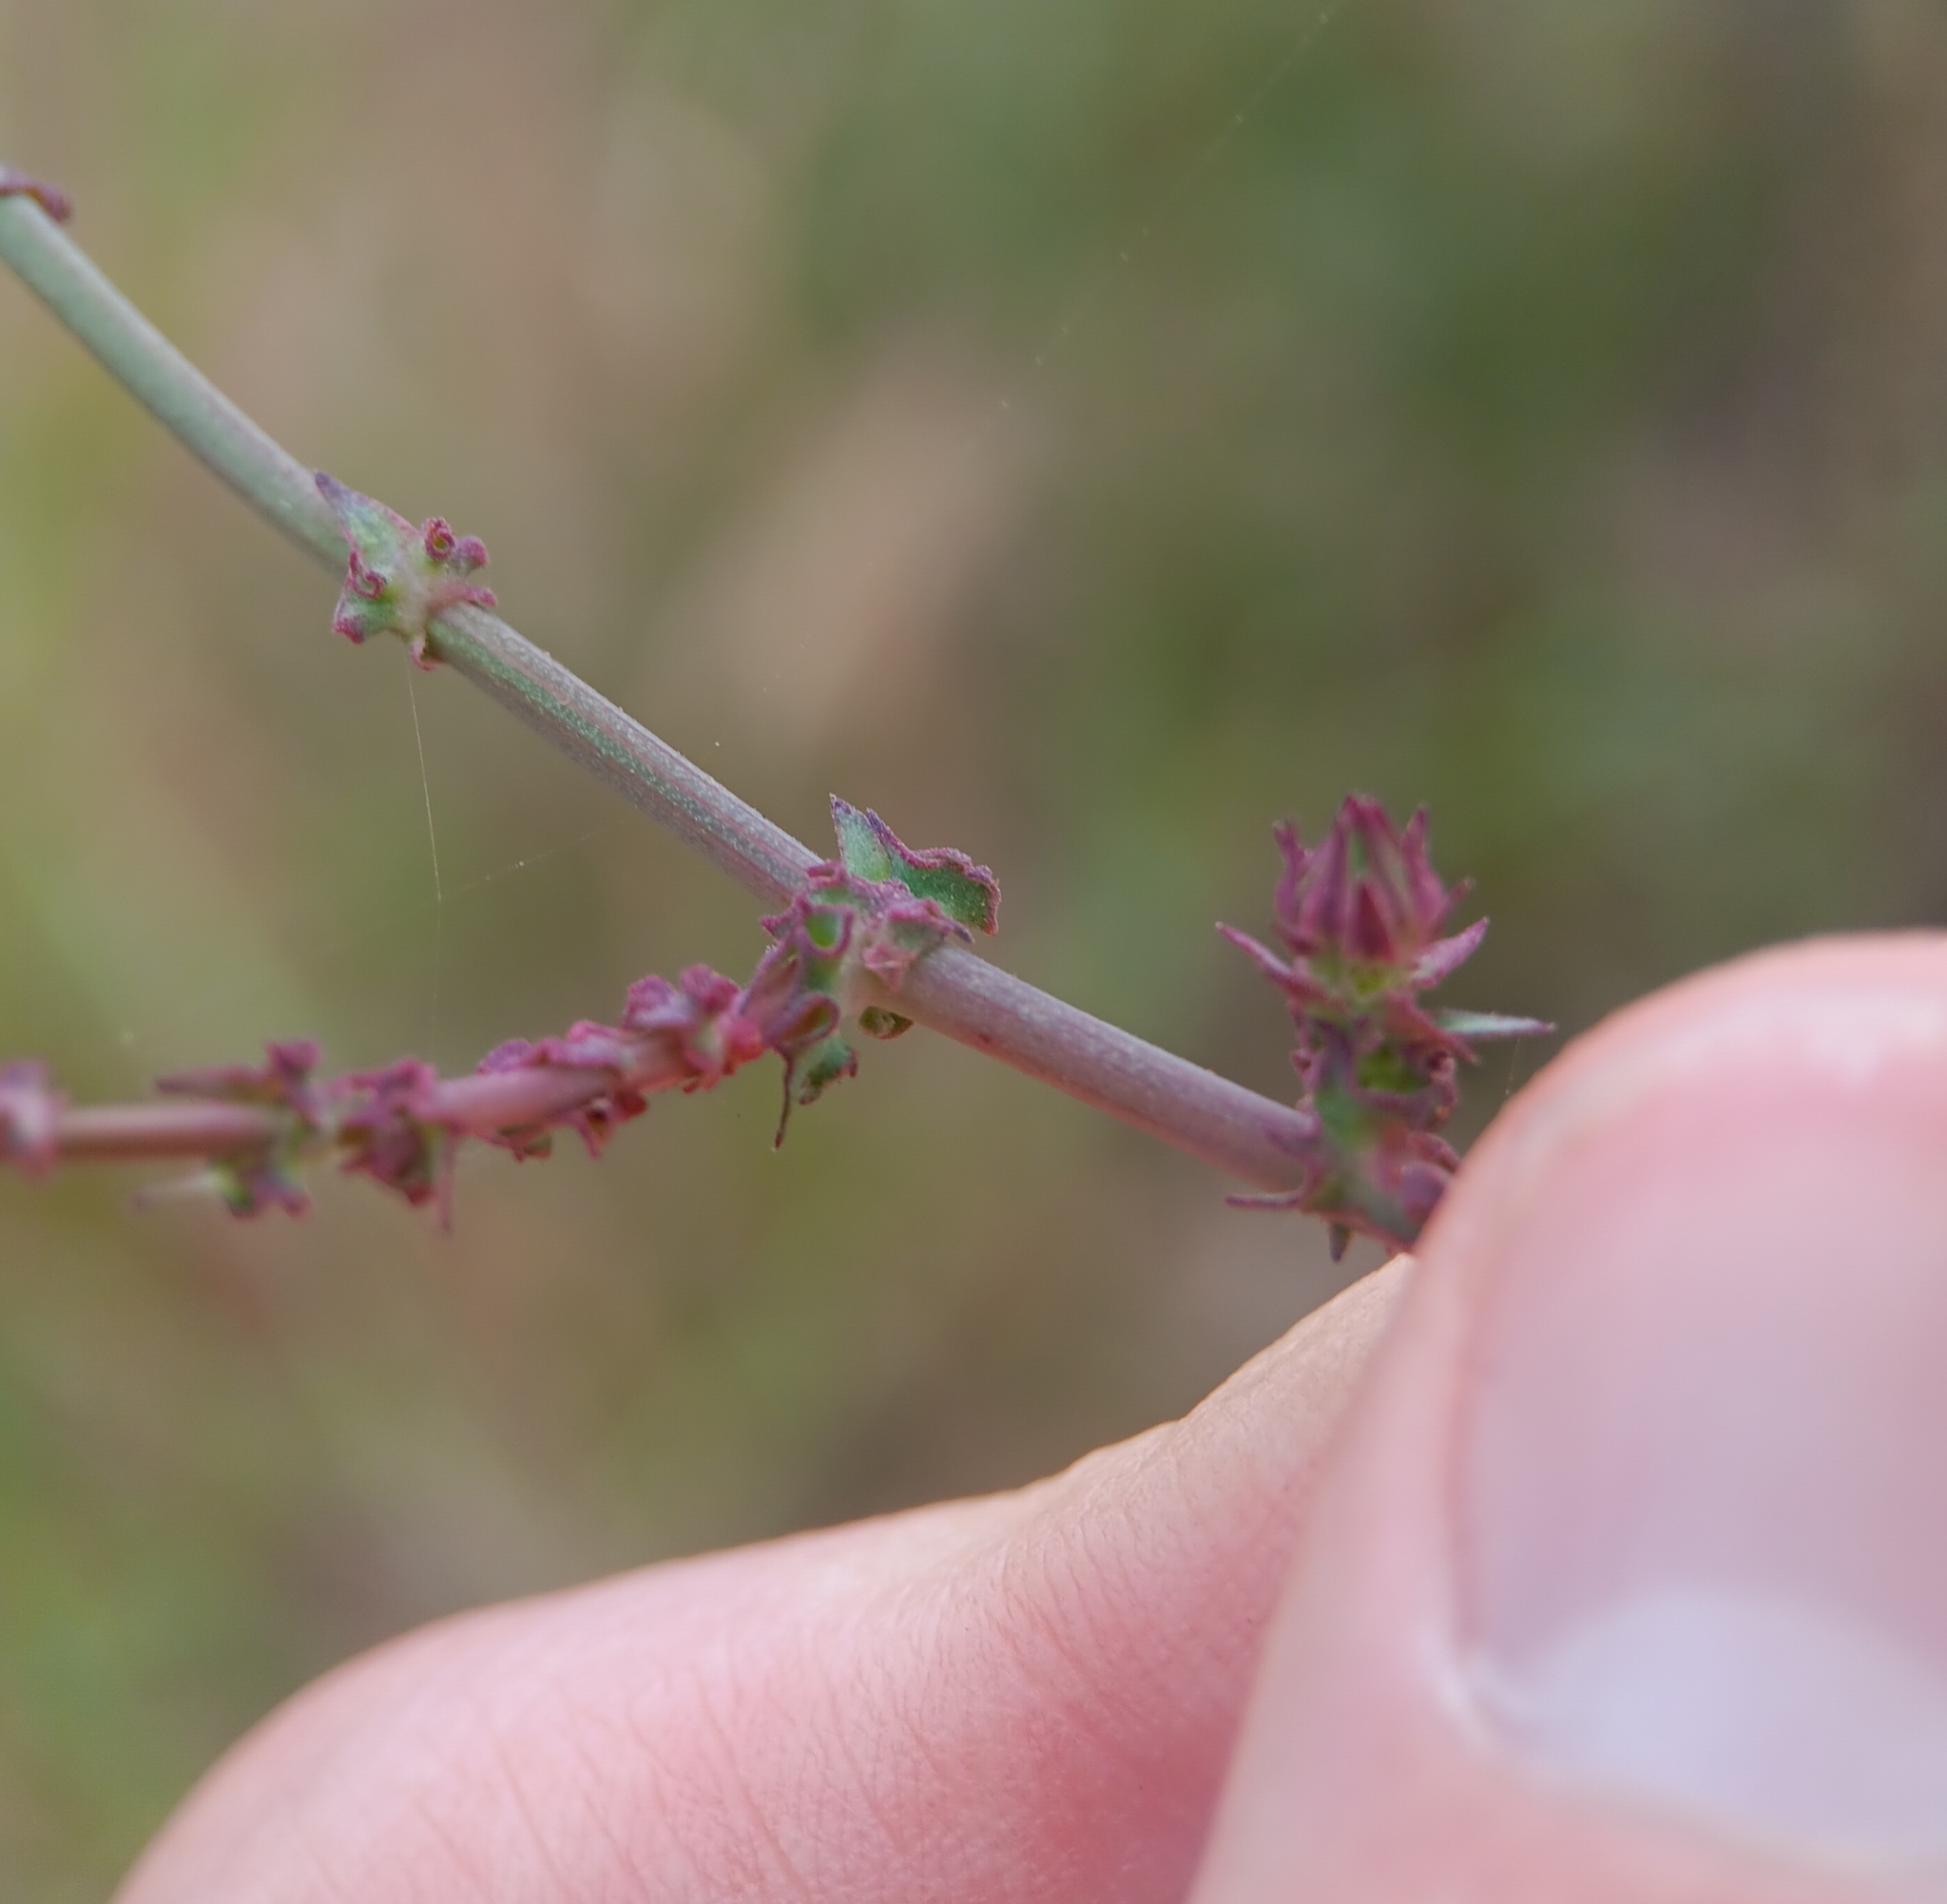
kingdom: Plantae
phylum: Tracheophyta
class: Magnoliopsida
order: Asterales
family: Asteraceae
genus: Rafinesquia
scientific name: Rafinesquia californica
